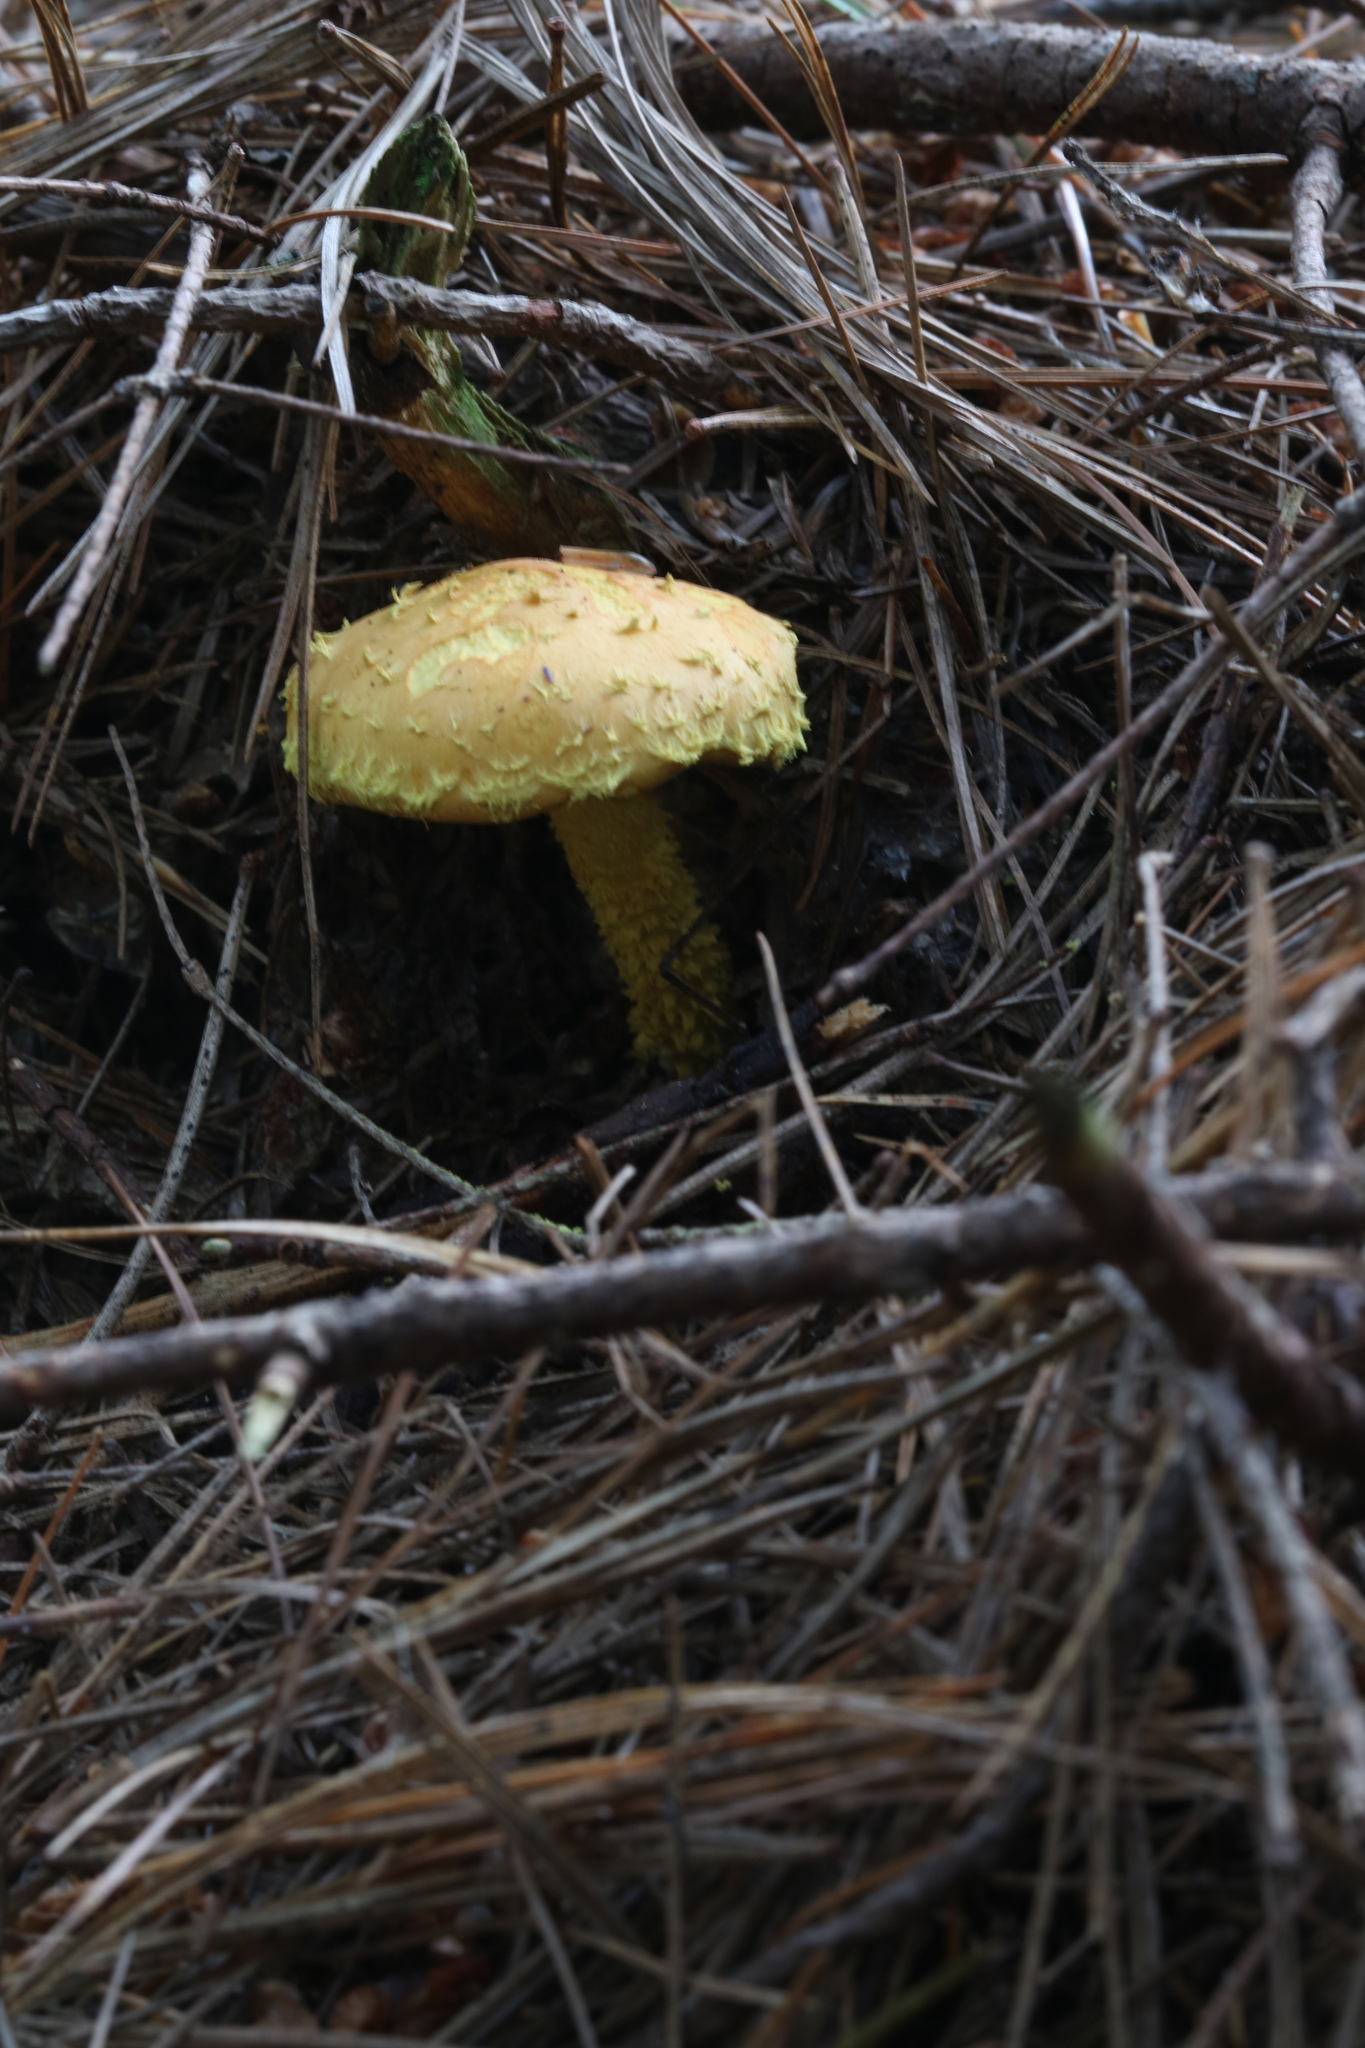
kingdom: Fungi
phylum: Basidiomycota
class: Agaricomycetes
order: Agaricales
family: Strophariaceae
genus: Pholiota
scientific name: Pholiota flammans
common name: Flaming scalycap
